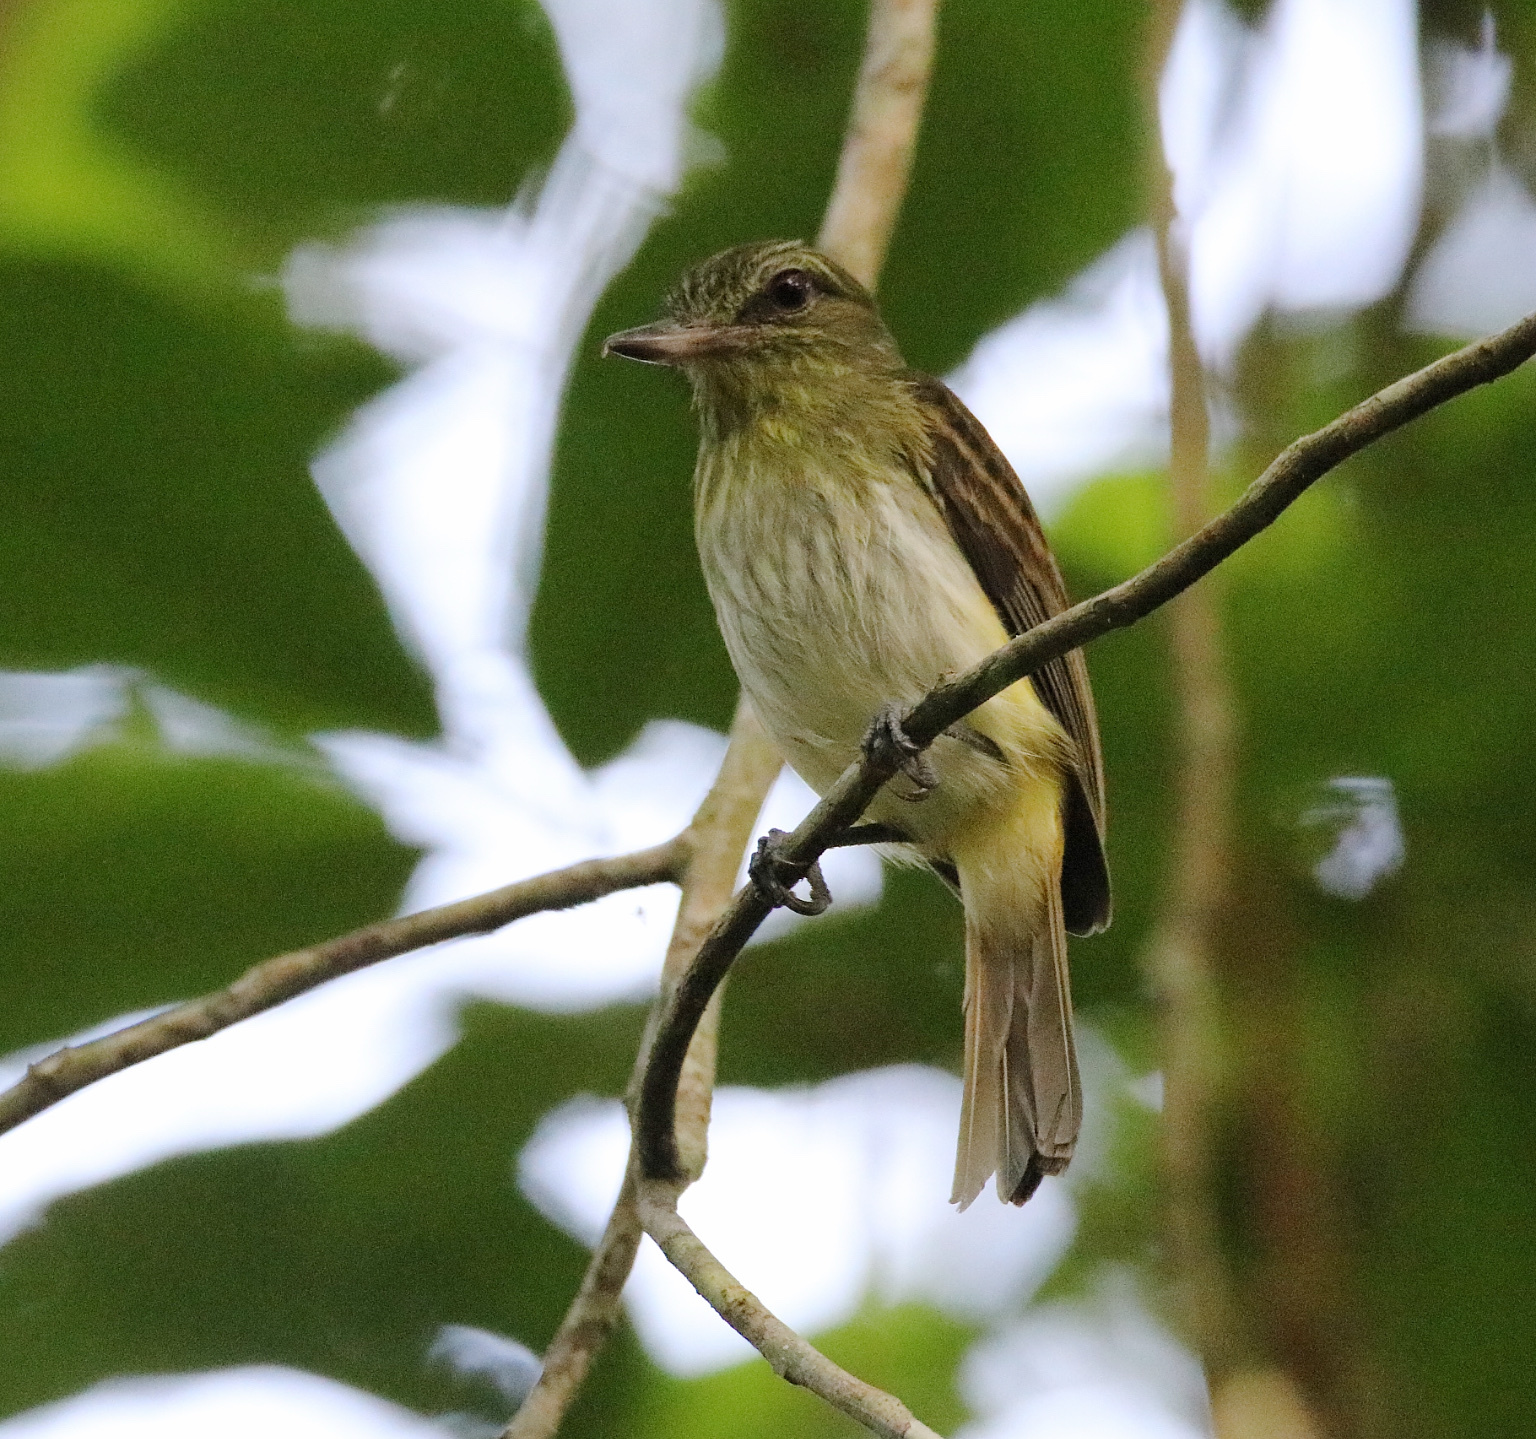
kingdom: Animalia
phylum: Chordata
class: Aves
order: Passeriformes
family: Tyrannidae
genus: Attila
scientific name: Attila spadiceus
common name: Bright-rumped attila
